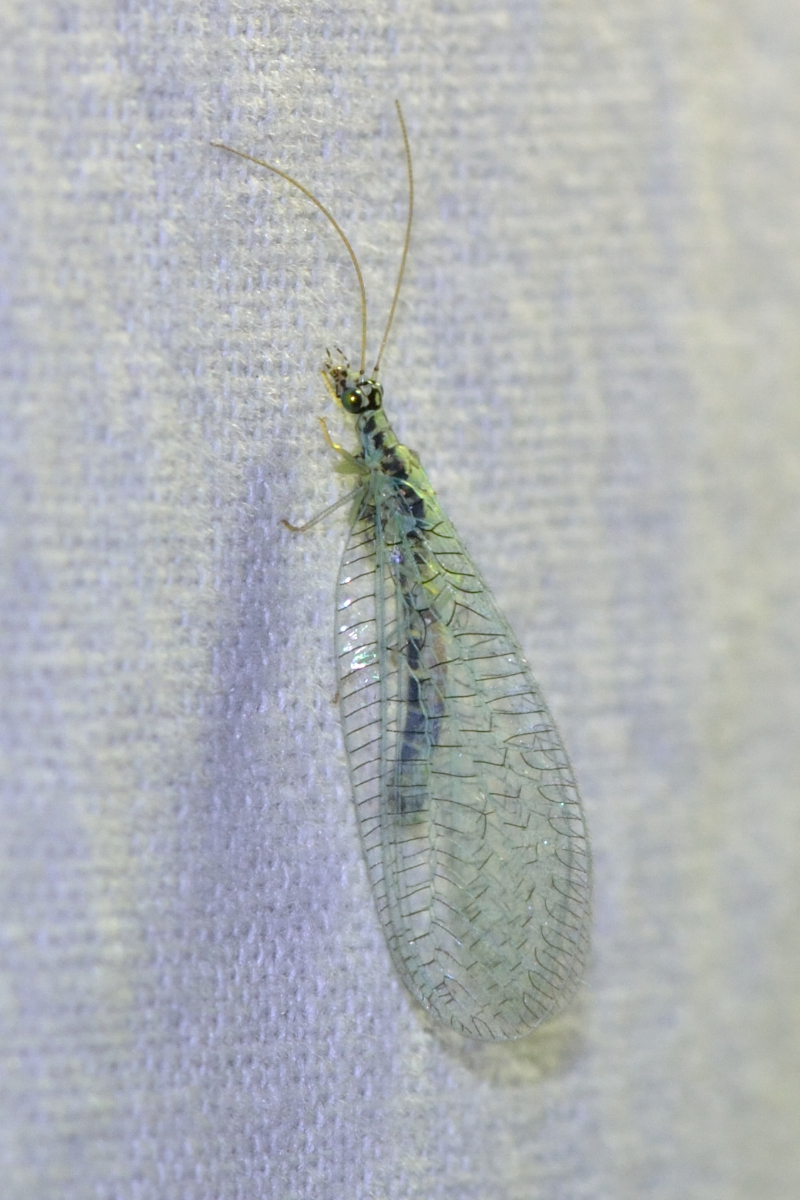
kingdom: Animalia
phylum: Arthropoda
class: Insecta
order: Neuroptera
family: Chrysopidae
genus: Chrysopa
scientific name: Chrysopa perla
